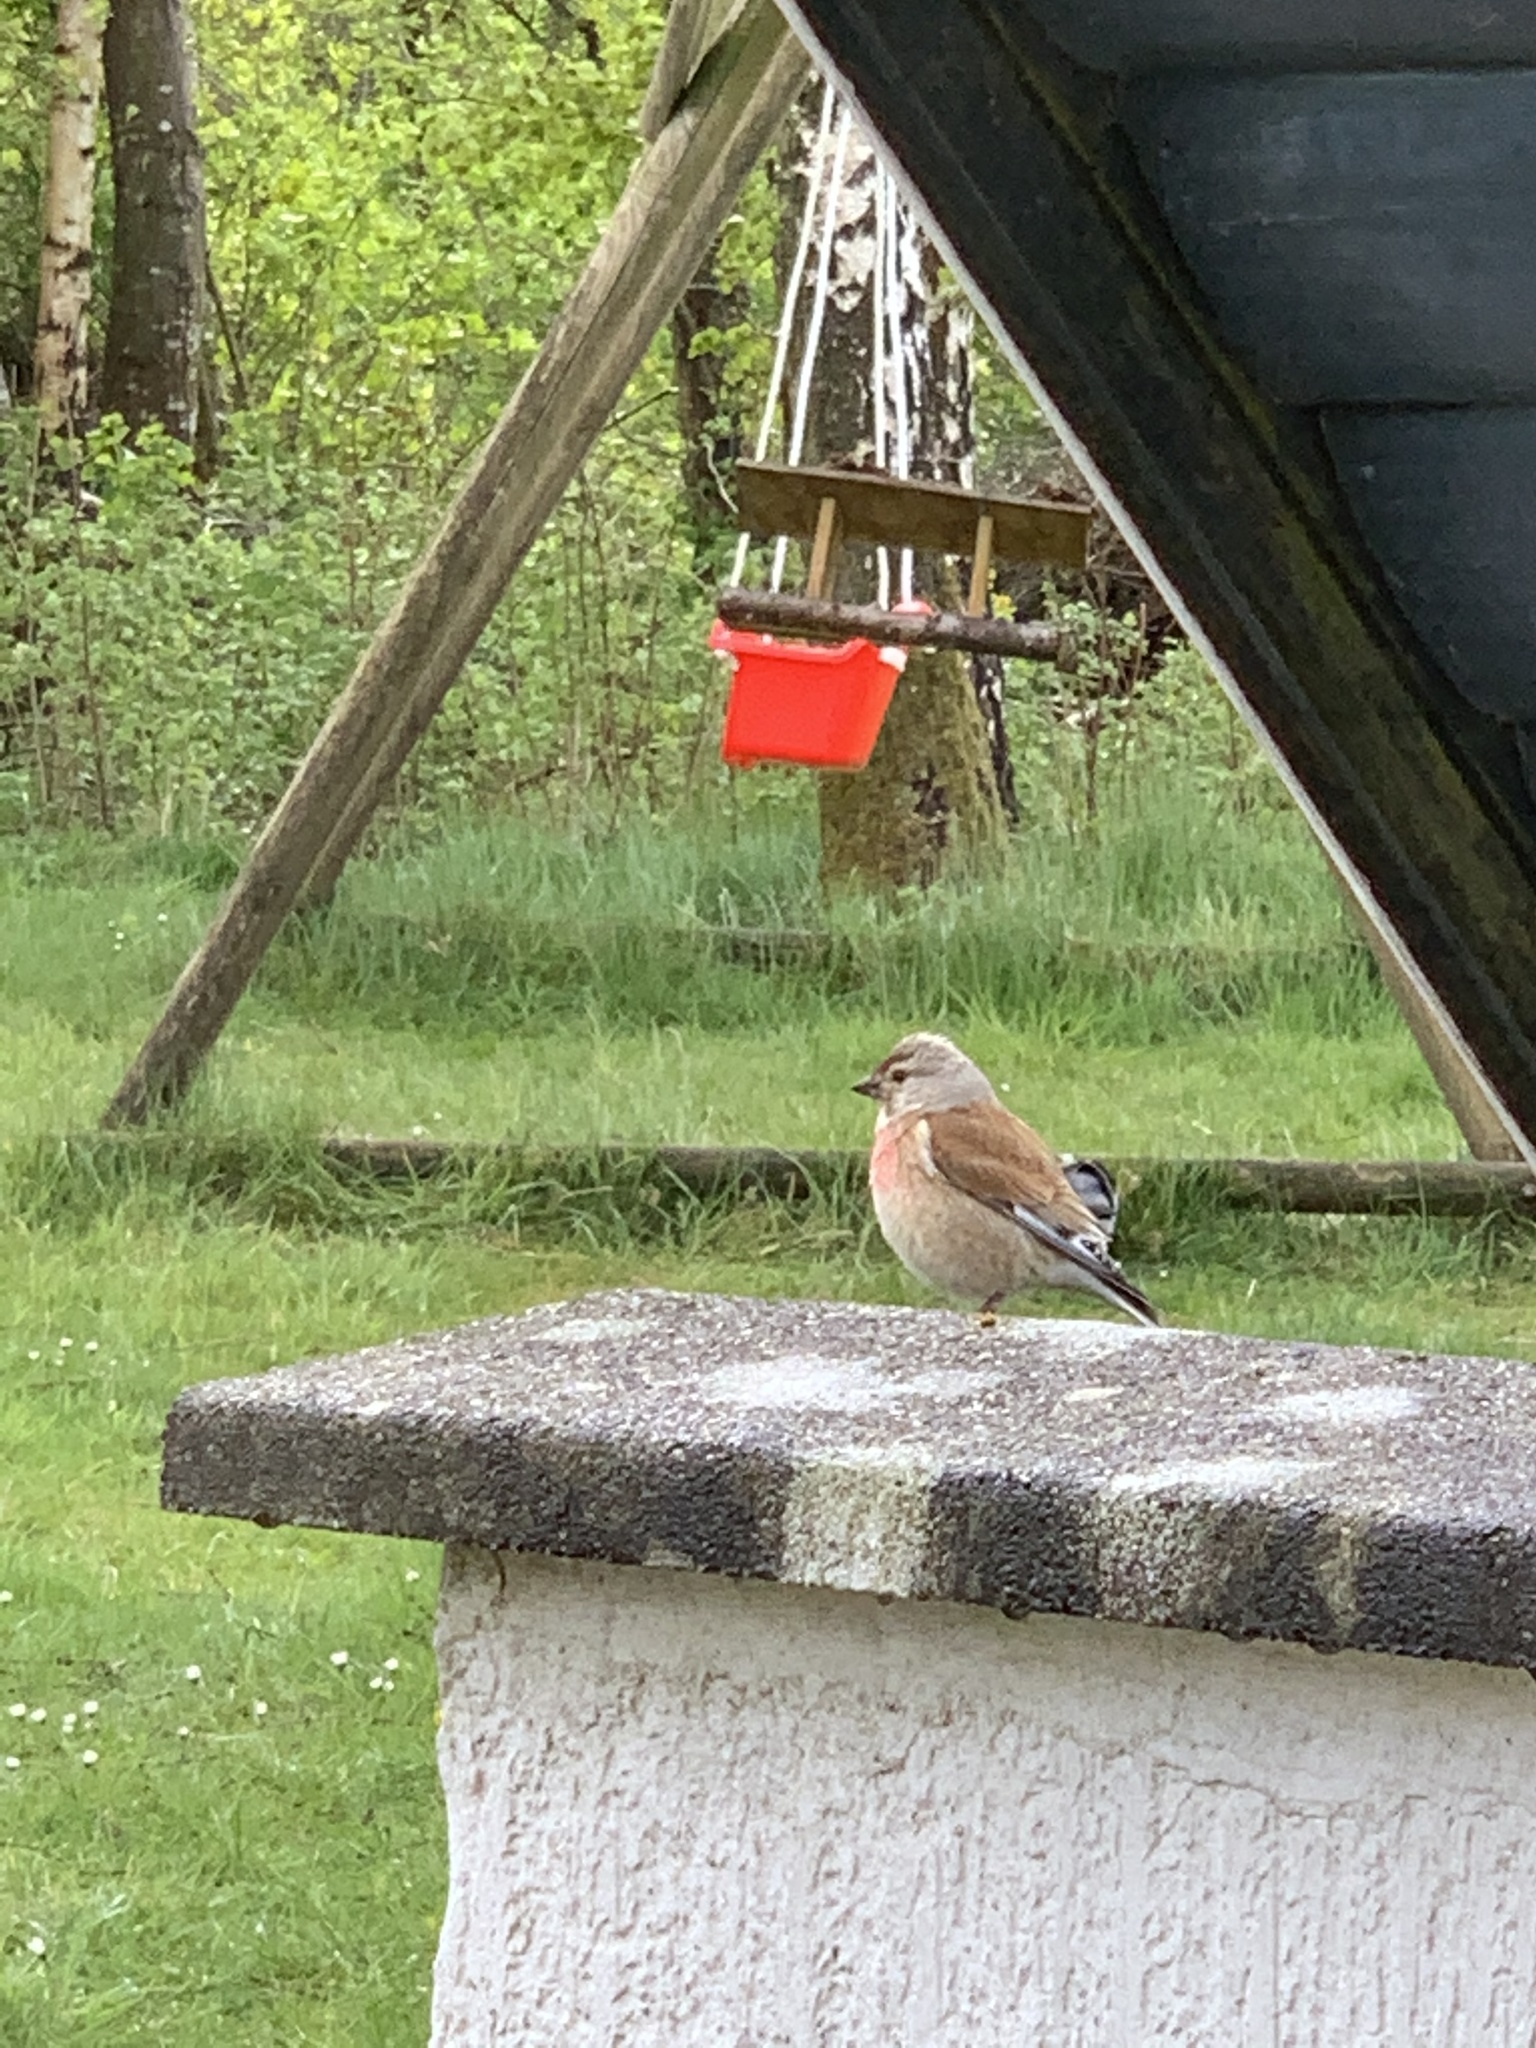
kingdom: Animalia
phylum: Chordata
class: Aves
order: Passeriformes
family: Fringillidae
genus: Linaria
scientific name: Linaria cannabina
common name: Common linnet
